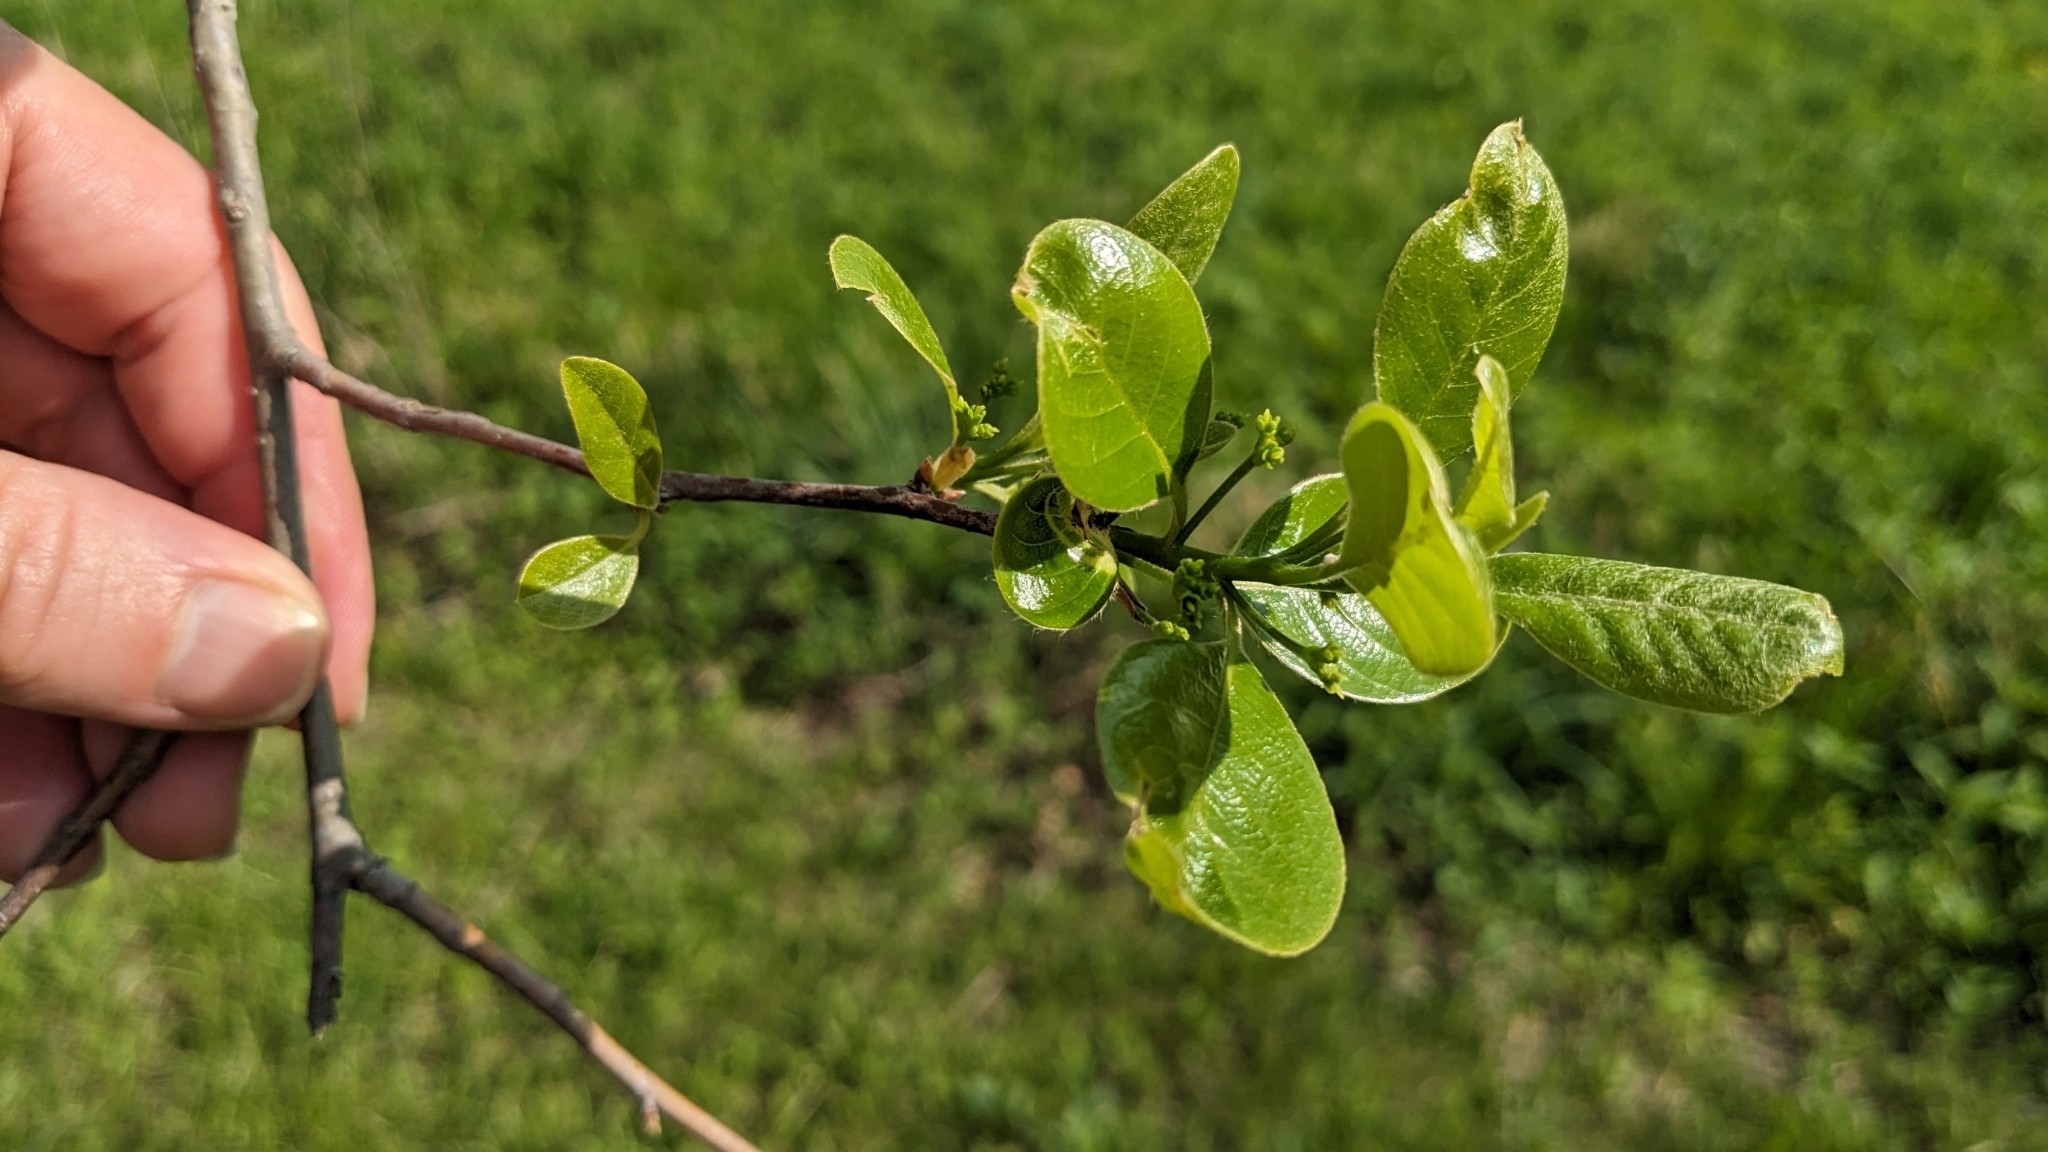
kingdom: Plantae
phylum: Tracheophyta
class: Magnoliopsida
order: Cornales
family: Nyssaceae
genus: Nyssa
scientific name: Nyssa sylvatica
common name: Black tupelo
